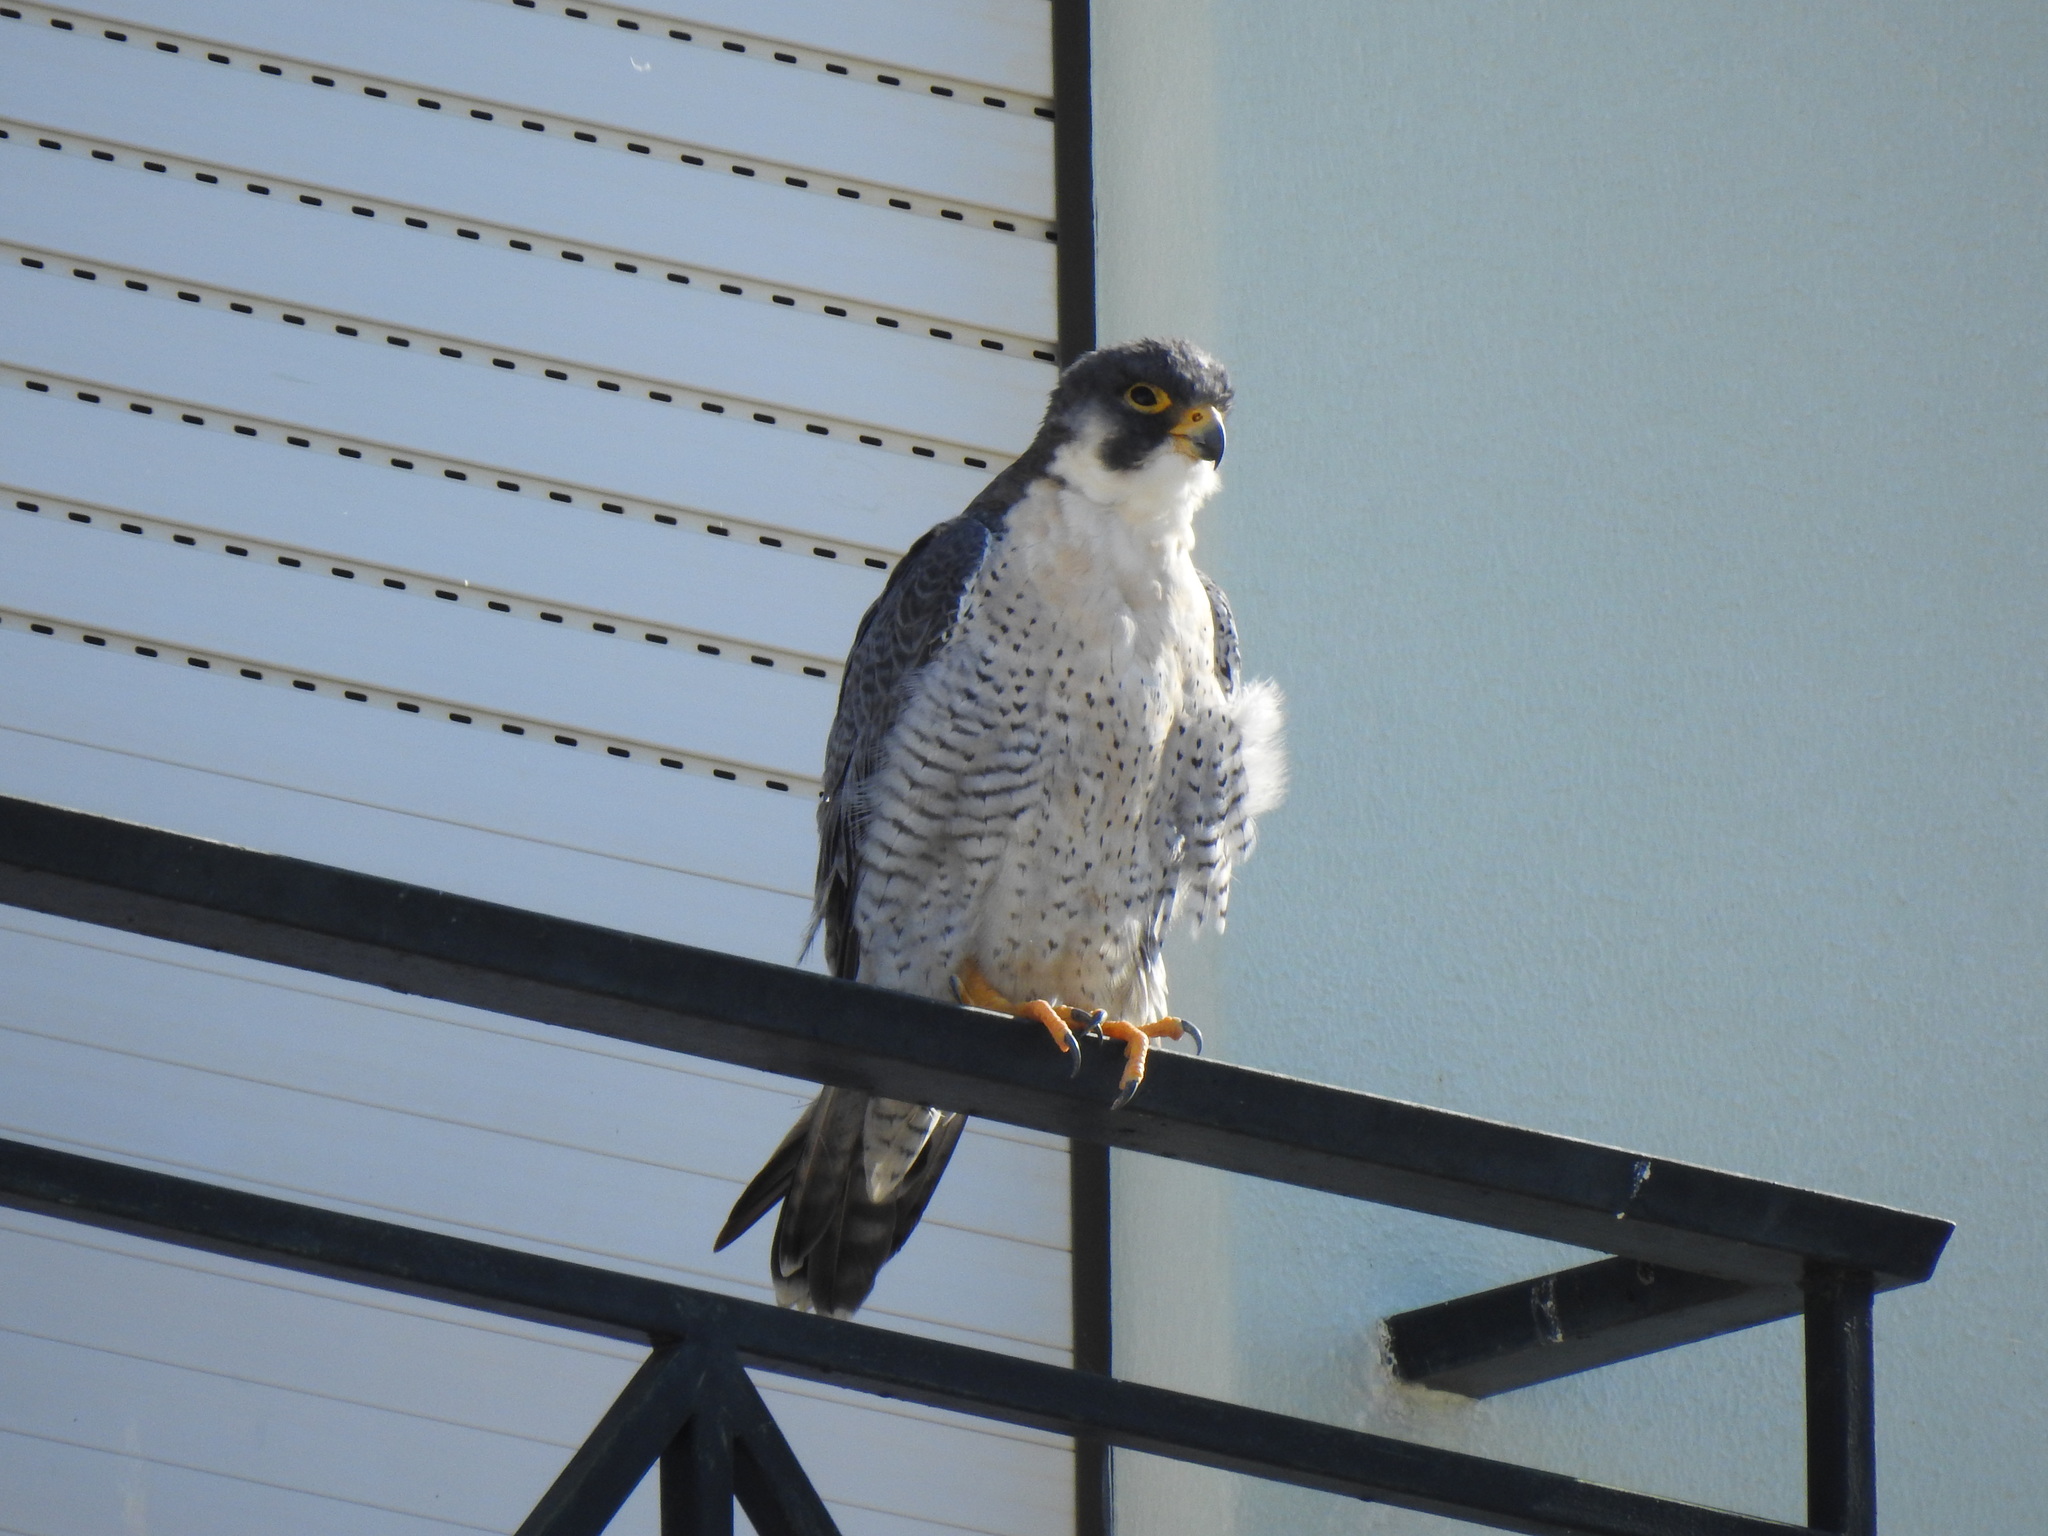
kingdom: Animalia
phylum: Chordata
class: Aves
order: Falconiformes
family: Falconidae
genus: Falco
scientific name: Falco peregrinus
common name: Peregrine falcon
